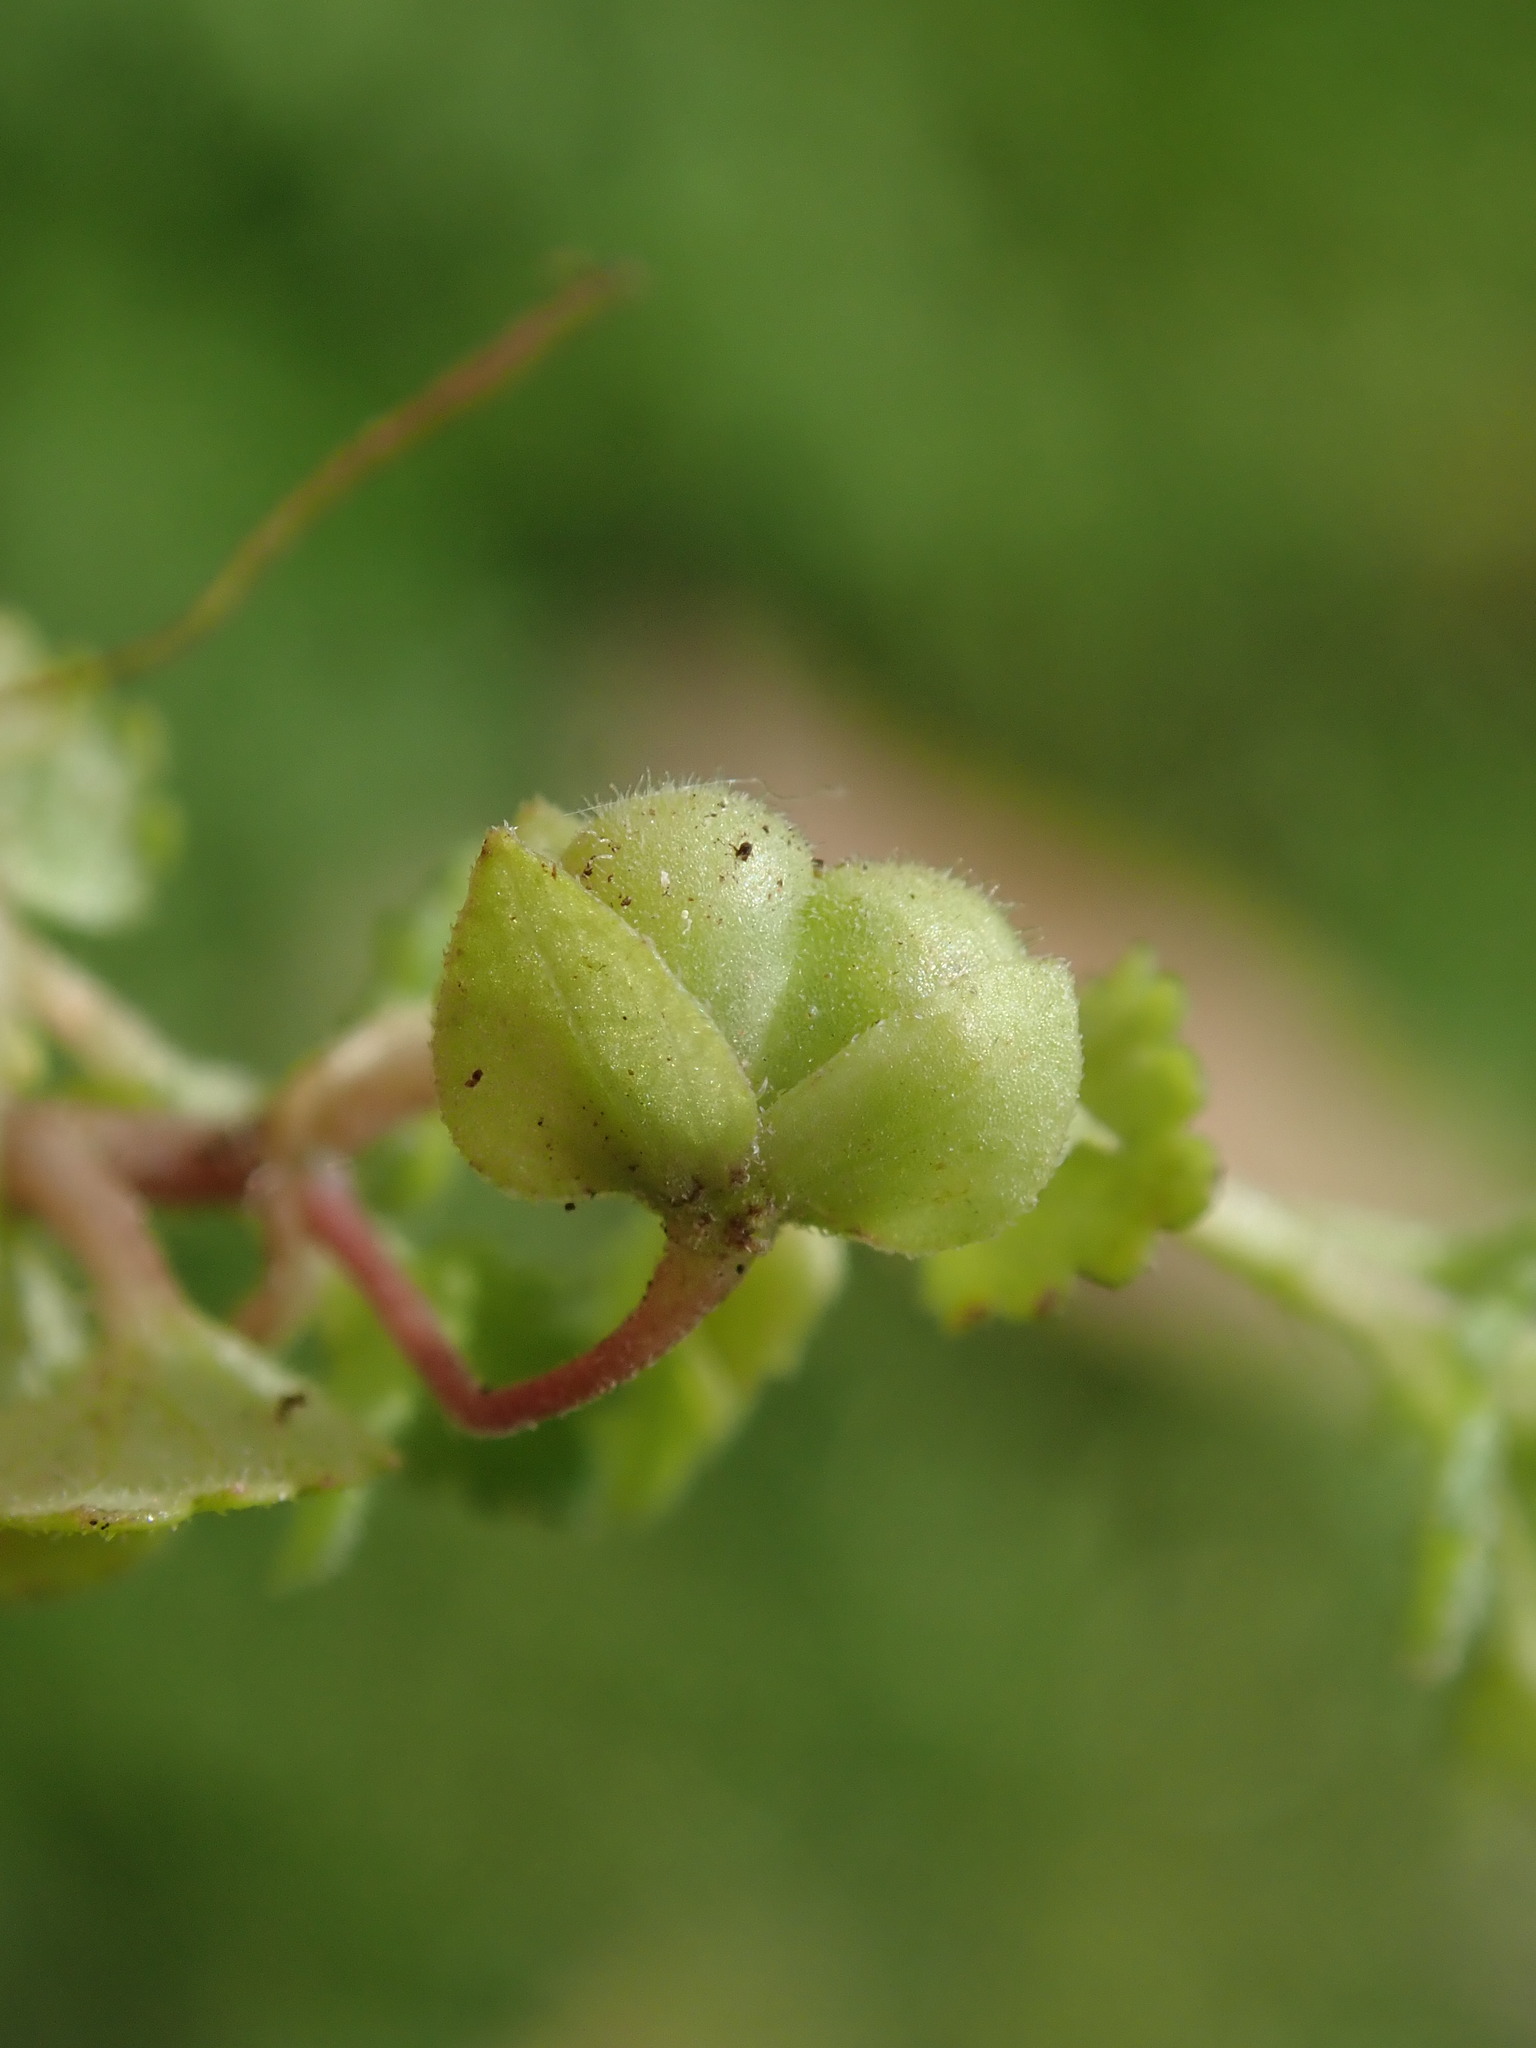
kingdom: Plantae
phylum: Tracheophyta
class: Magnoliopsida
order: Lamiales
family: Plantaginaceae
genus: Veronica
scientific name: Veronica polita
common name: Grey field-speedwell
